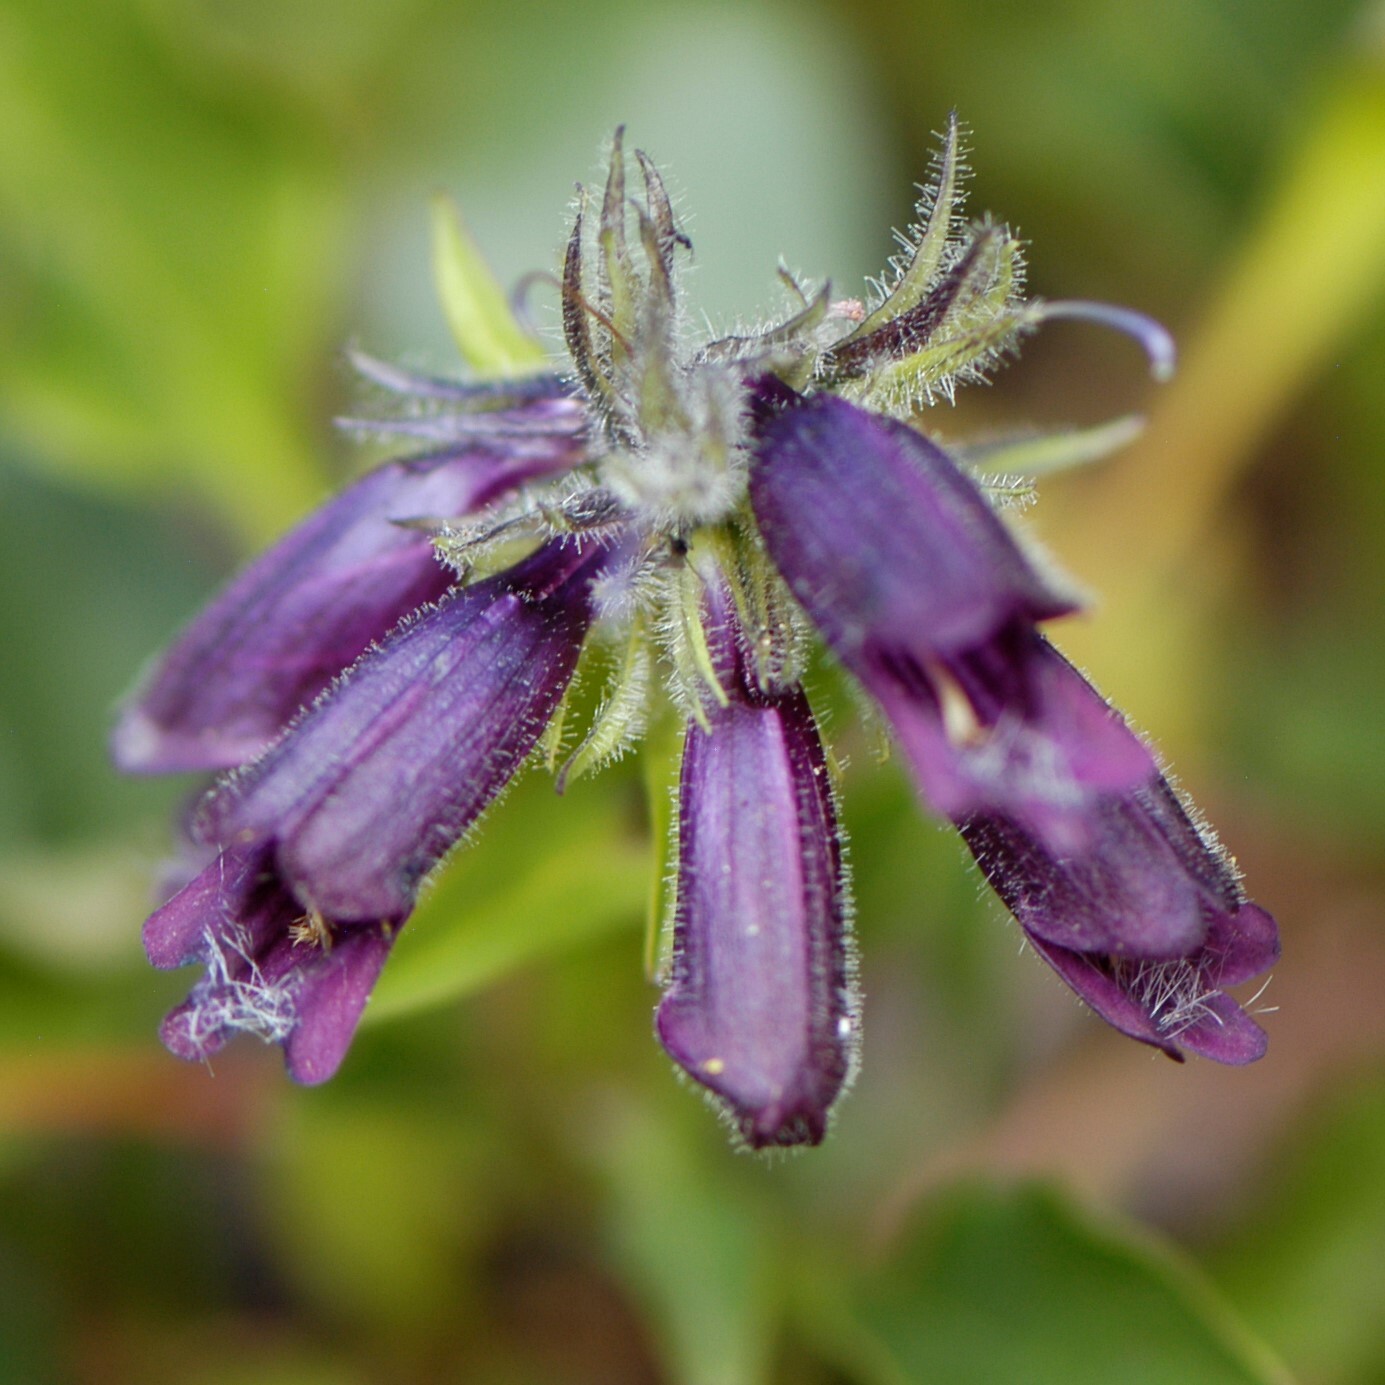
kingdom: Plantae
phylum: Tracheophyta
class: Magnoliopsida
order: Lamiales
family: Plantaginaceae
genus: Penstemon
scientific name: Penstemon whippleanus
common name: Whipple's penstemon
